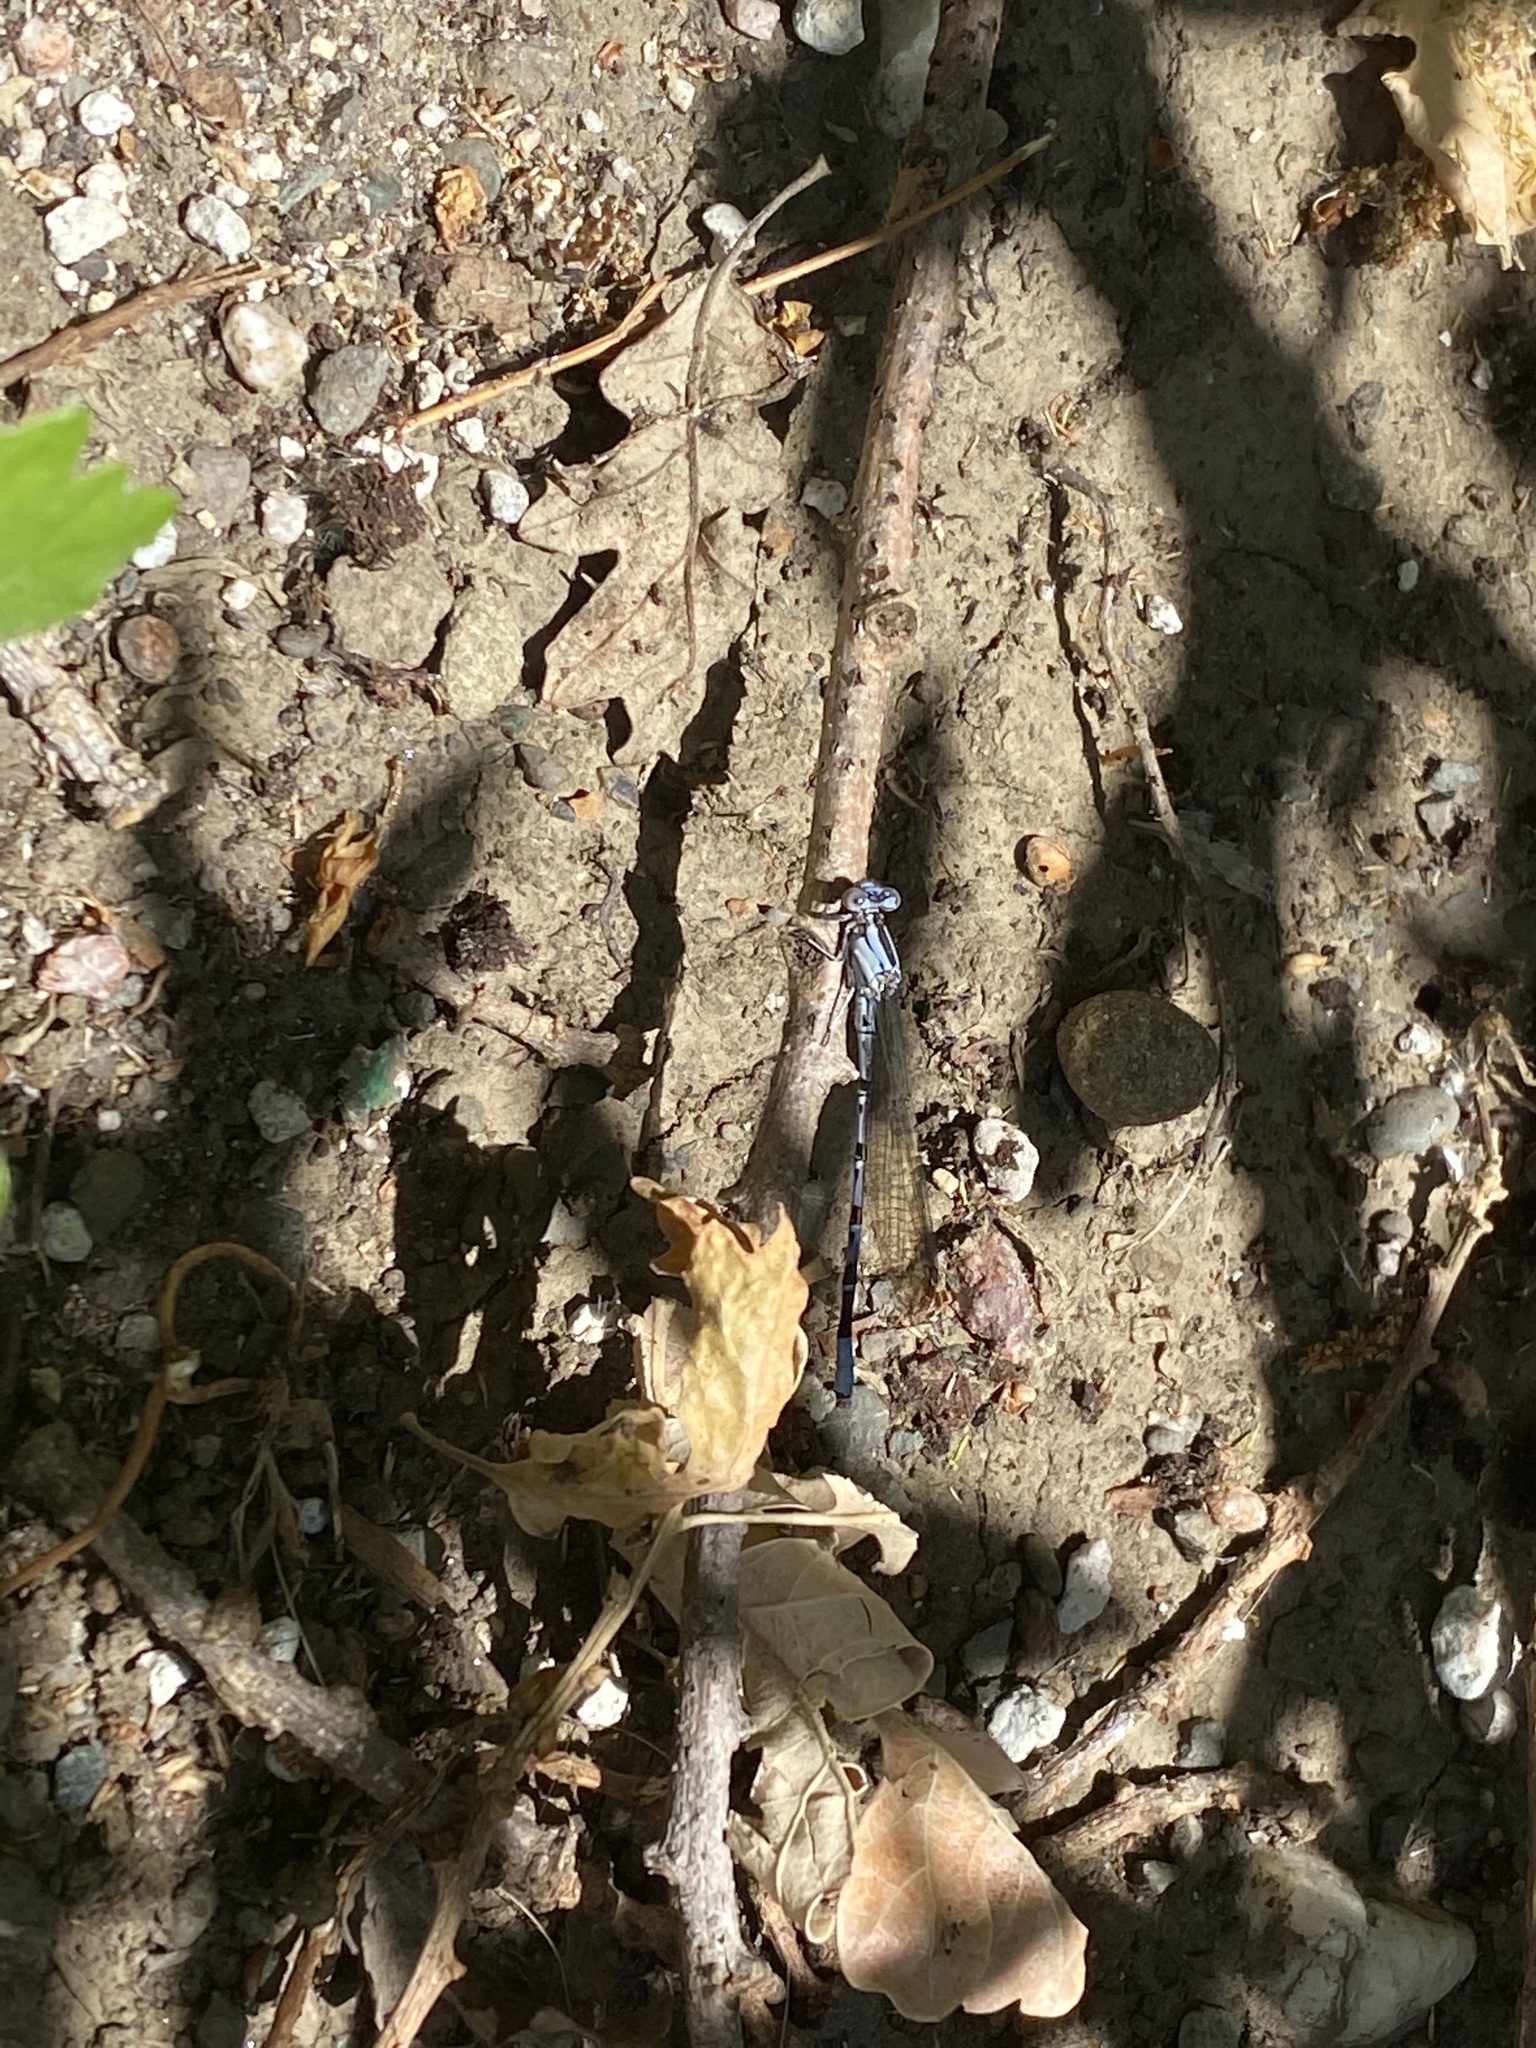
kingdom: Animalia
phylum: Arthropoda
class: Insecta
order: Odonata
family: Coenagrionidae
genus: Argia
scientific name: Argia vivida
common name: Vivid dancer
